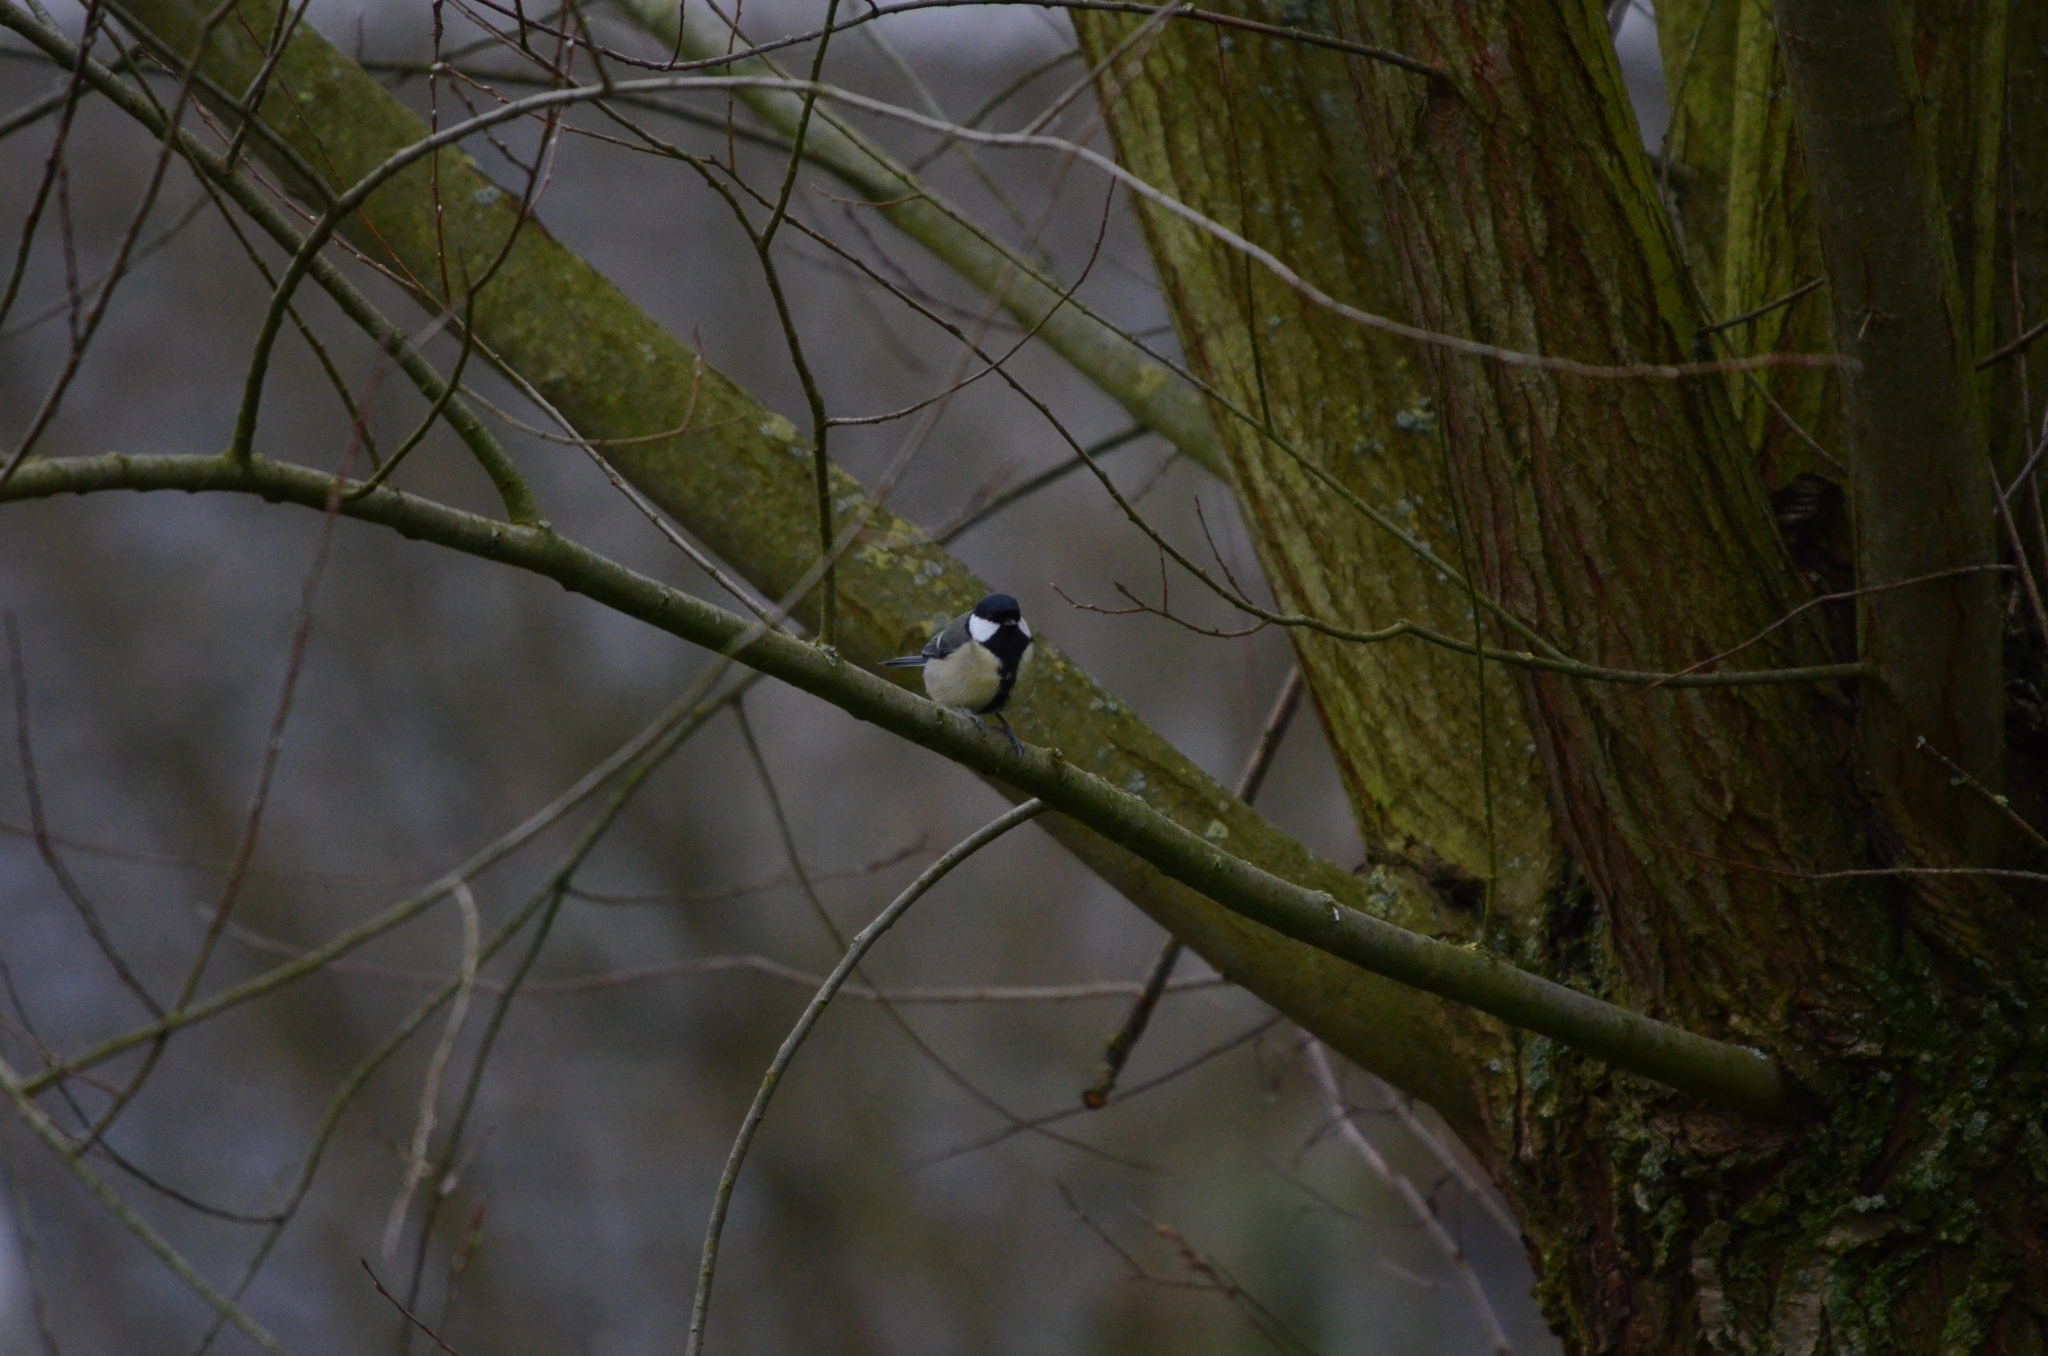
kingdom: Animalia
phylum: Chordata
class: Aves
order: Passeriformes
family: Paridae
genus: Parus
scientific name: Parus major
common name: Great tit
